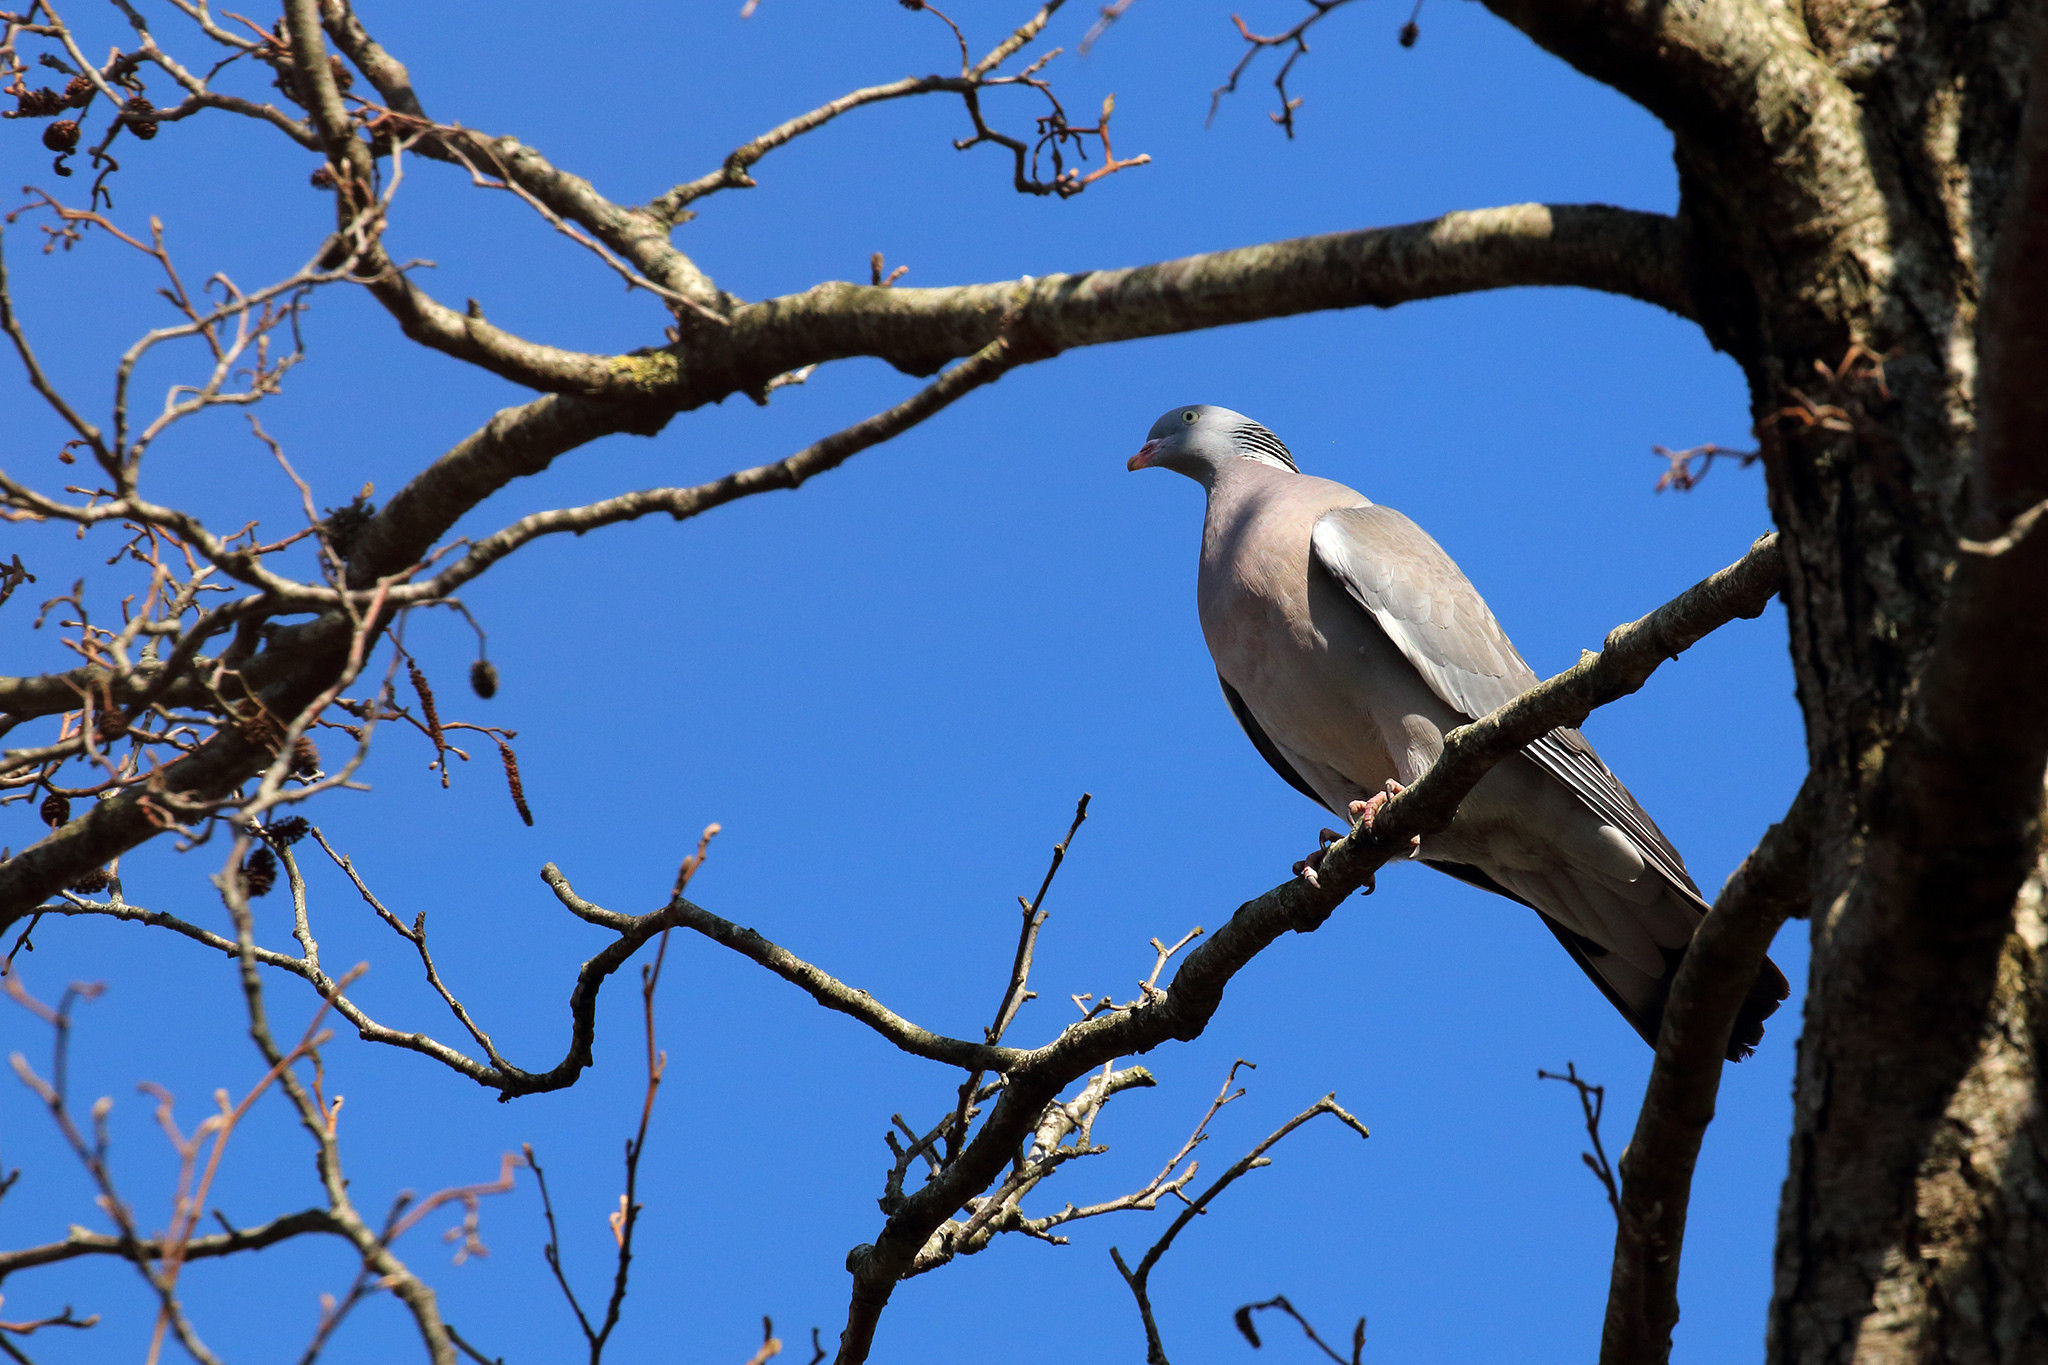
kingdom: Animalia
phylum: Chordata
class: Aves
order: Columbiformes
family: Columbidae
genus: Columba
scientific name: Columba palumbus
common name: Common wood pigeon
